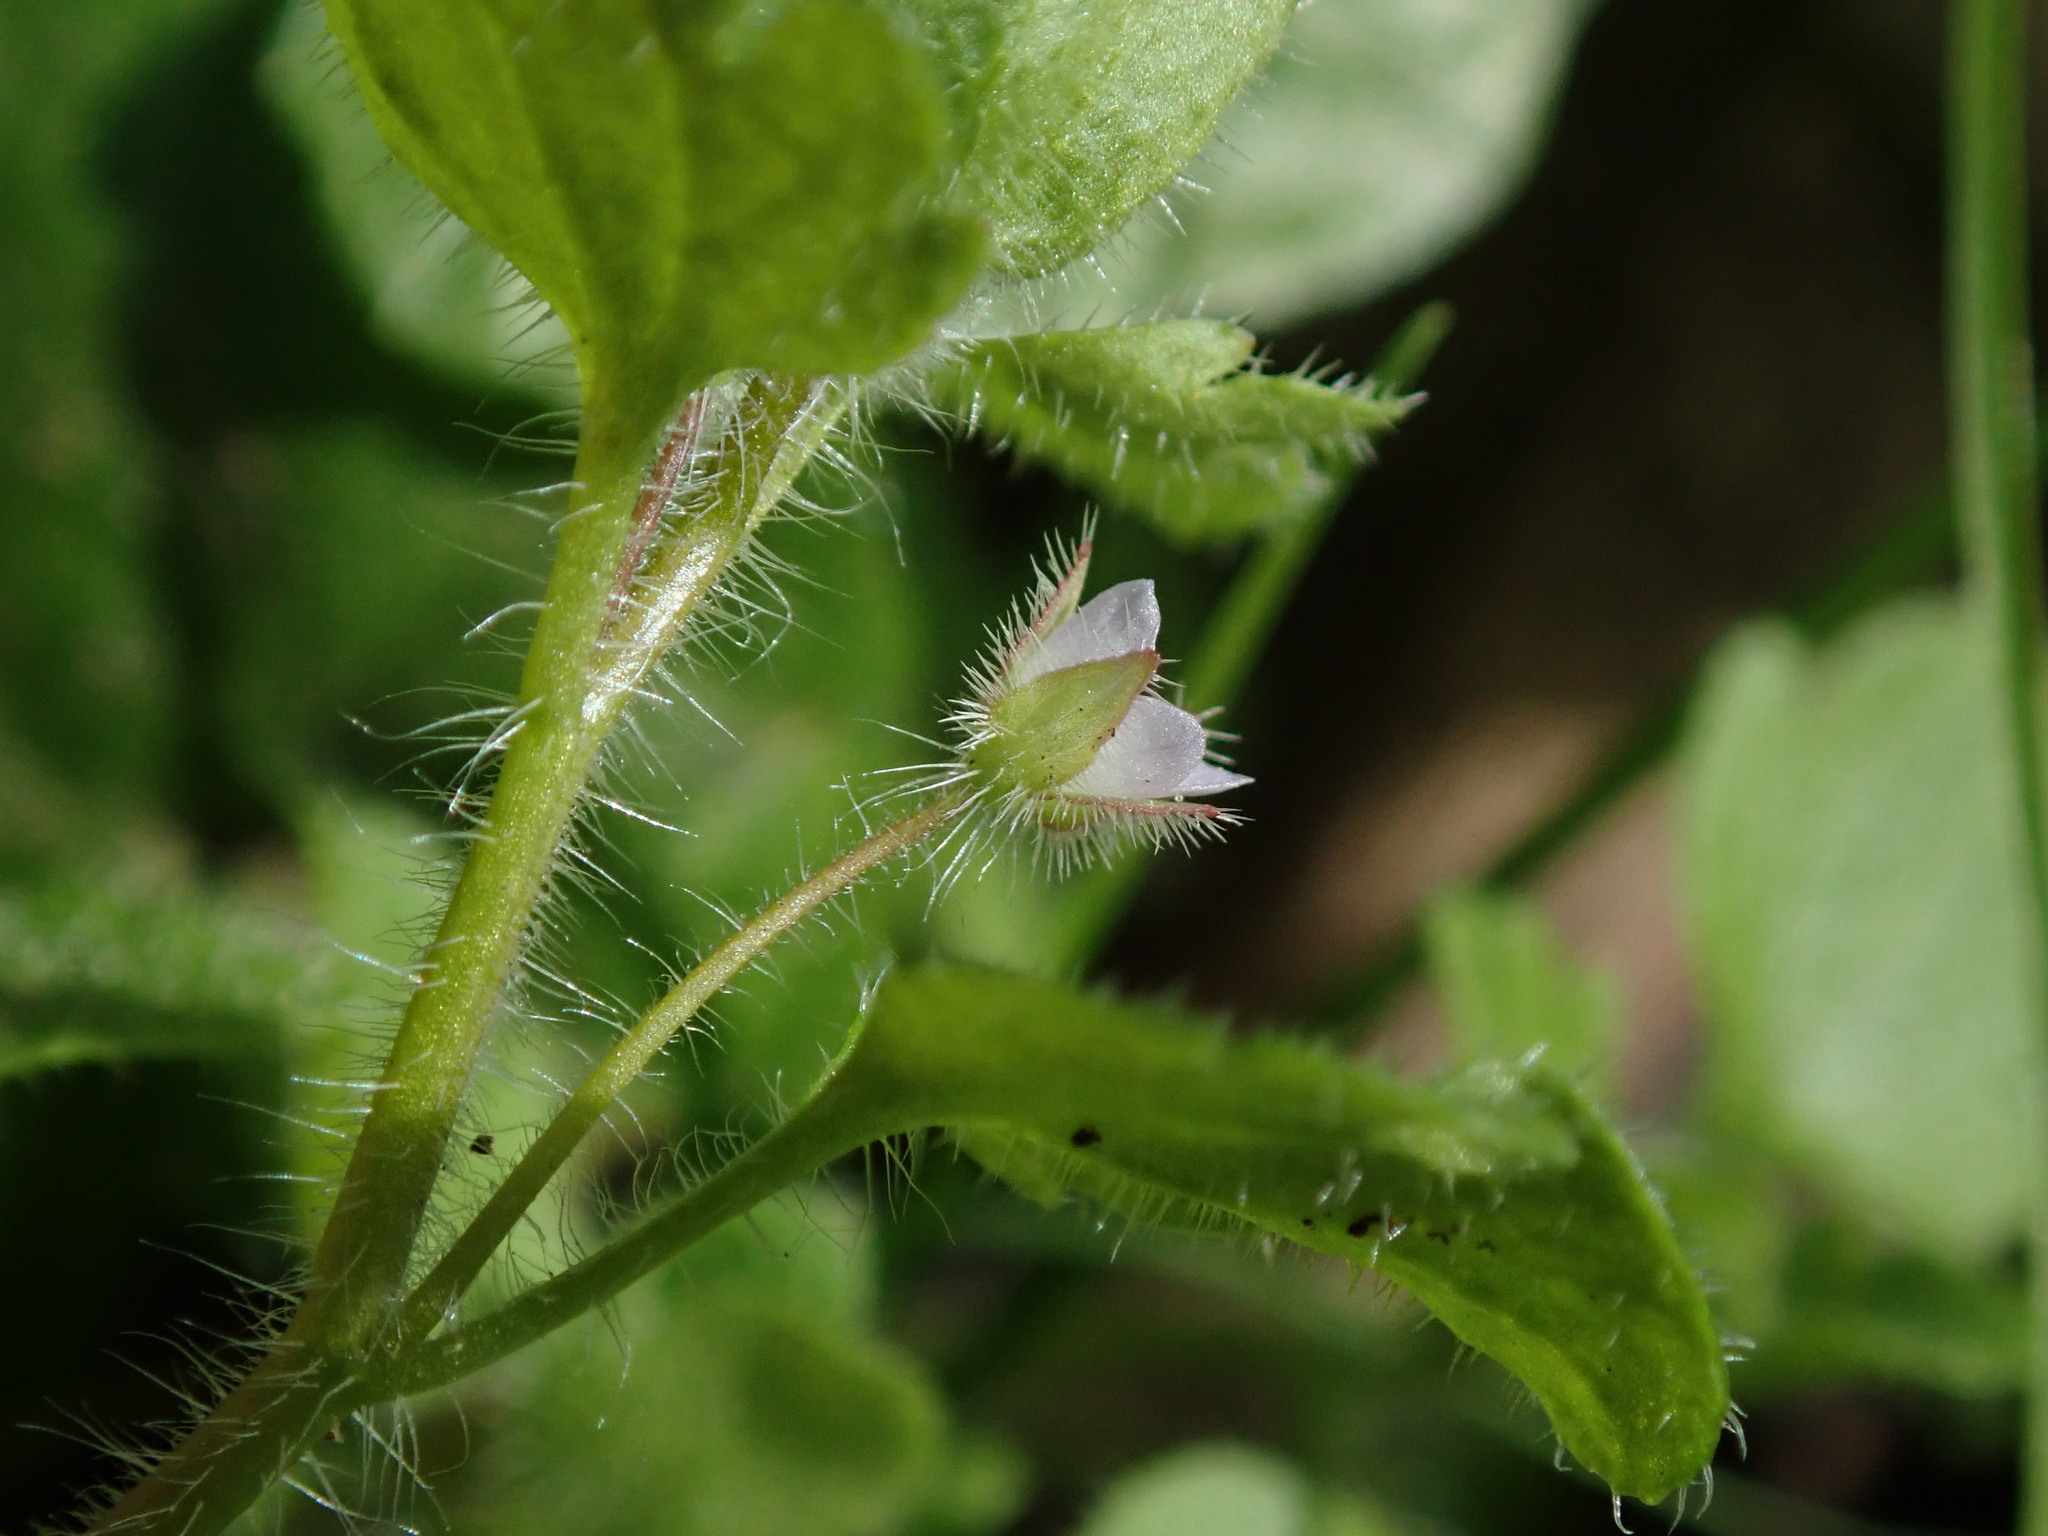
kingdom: Plantae
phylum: Tracheophyta
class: Magnoliopsida
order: Lamiales
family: Plantaginaceae
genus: Veronica
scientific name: Veronica sublobata
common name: False ivy-leaved speedwell
